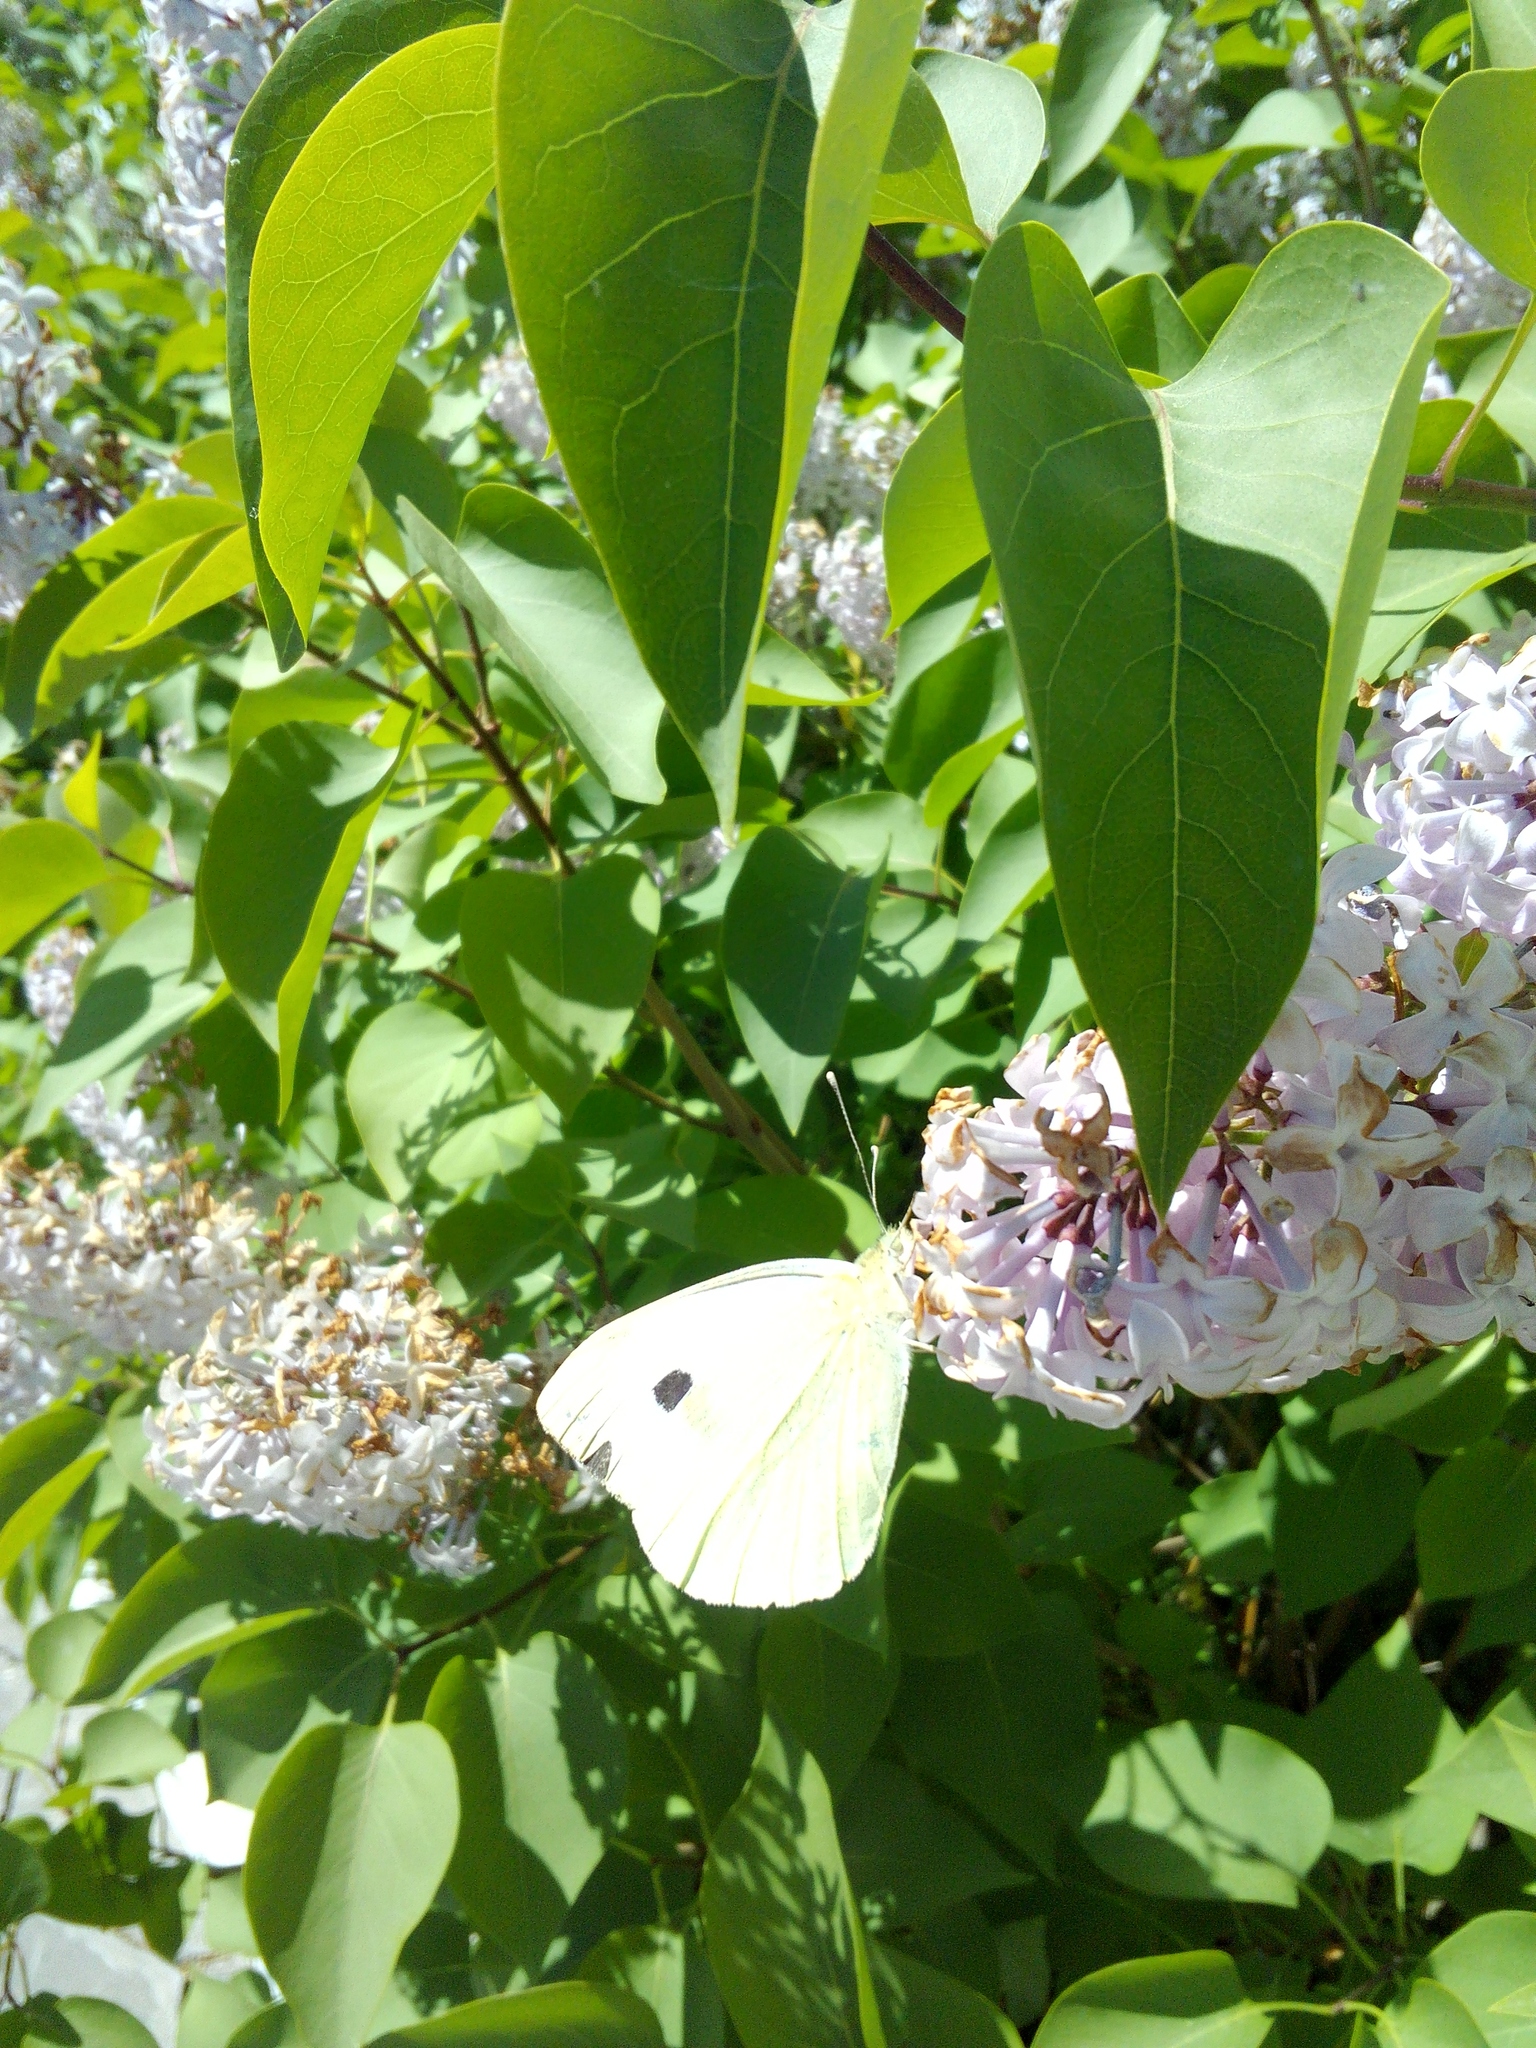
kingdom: Animalia
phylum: Arthropoda
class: Insecta
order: Lepidoptera
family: Pieridae
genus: Pieris
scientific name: Pieris rapae
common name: Small white
